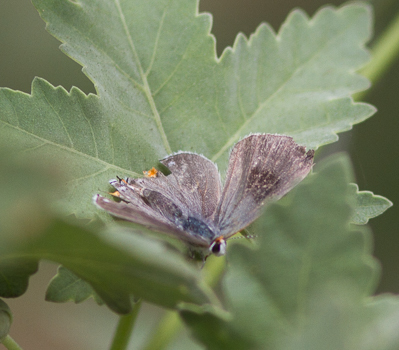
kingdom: Animalia
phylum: Arthropoda
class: Insecta
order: Lepidoptera
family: Lycaenidae
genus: Strymon
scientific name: Strymon melinus
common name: Gray hairstreak
